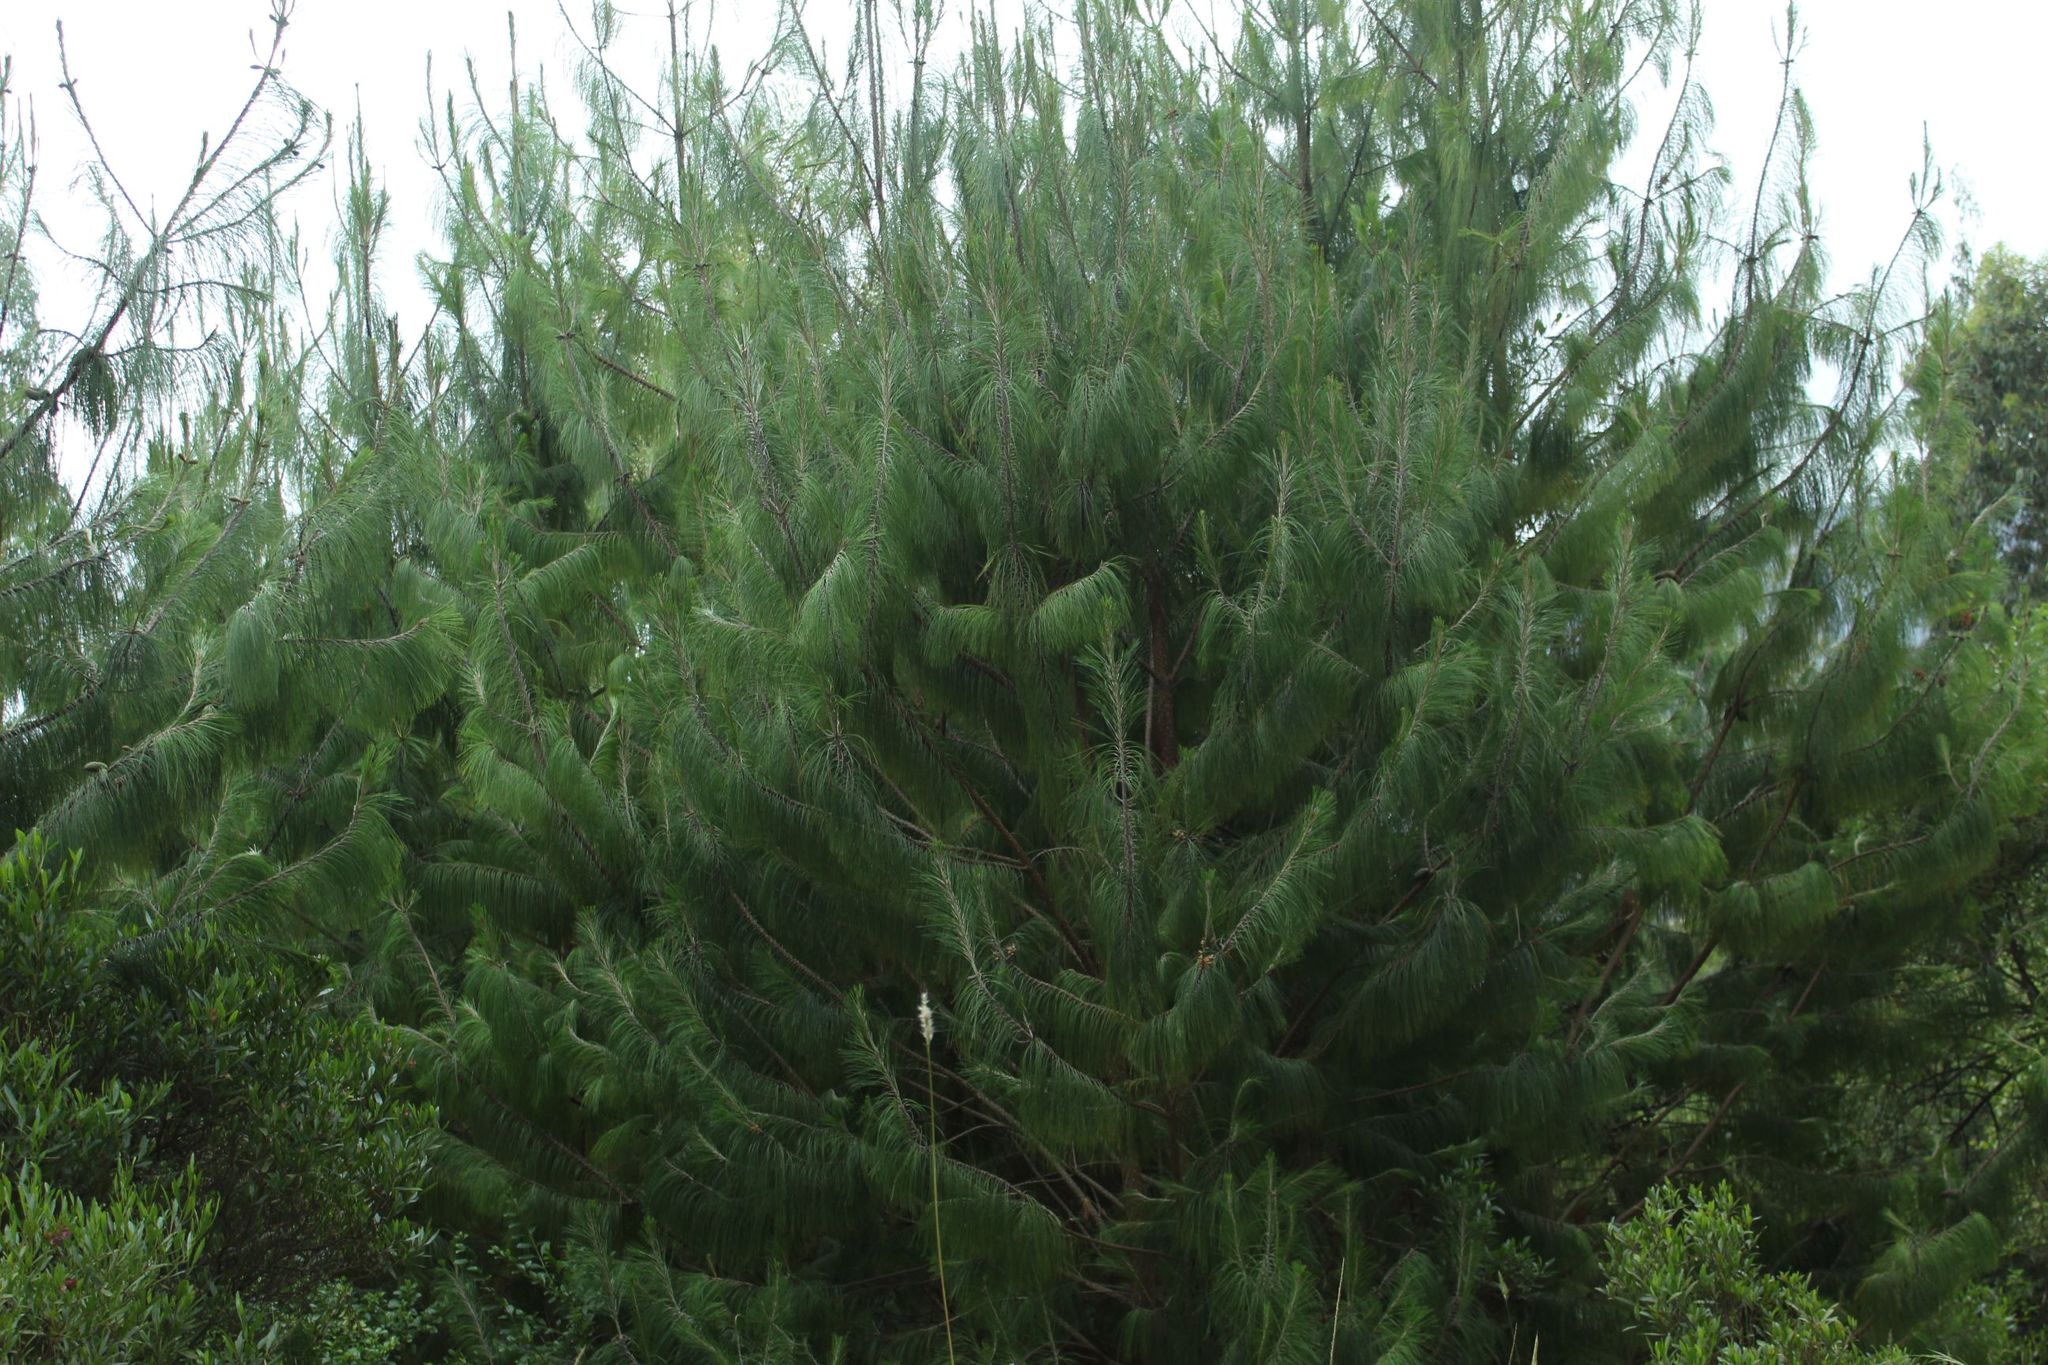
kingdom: Plantae
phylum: Tracheophyta
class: Pinopsida
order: Pinales
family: Pinaceae
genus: Pinus
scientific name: Pinus patula
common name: Mexican weeping pine
